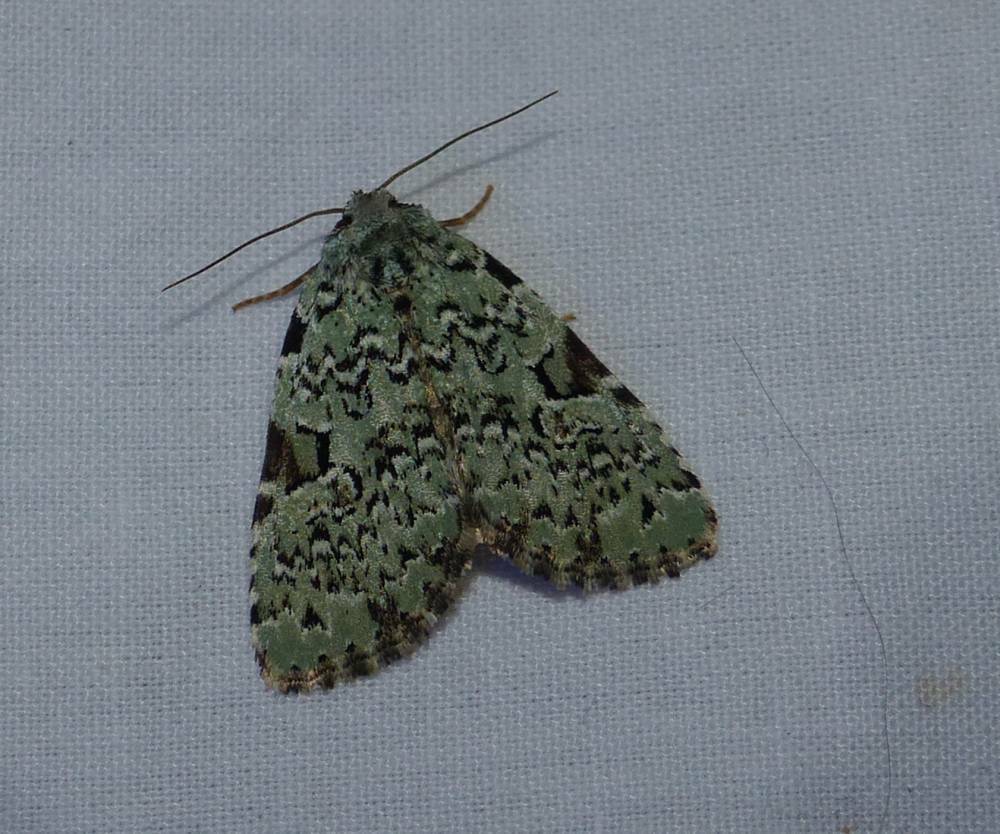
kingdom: Animalia
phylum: Arthropoda
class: Insecta
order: Lepidoptera
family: Noctuidae
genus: Leuconycta
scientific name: Leuconycta diphteroides
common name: Green leuconycta moth
